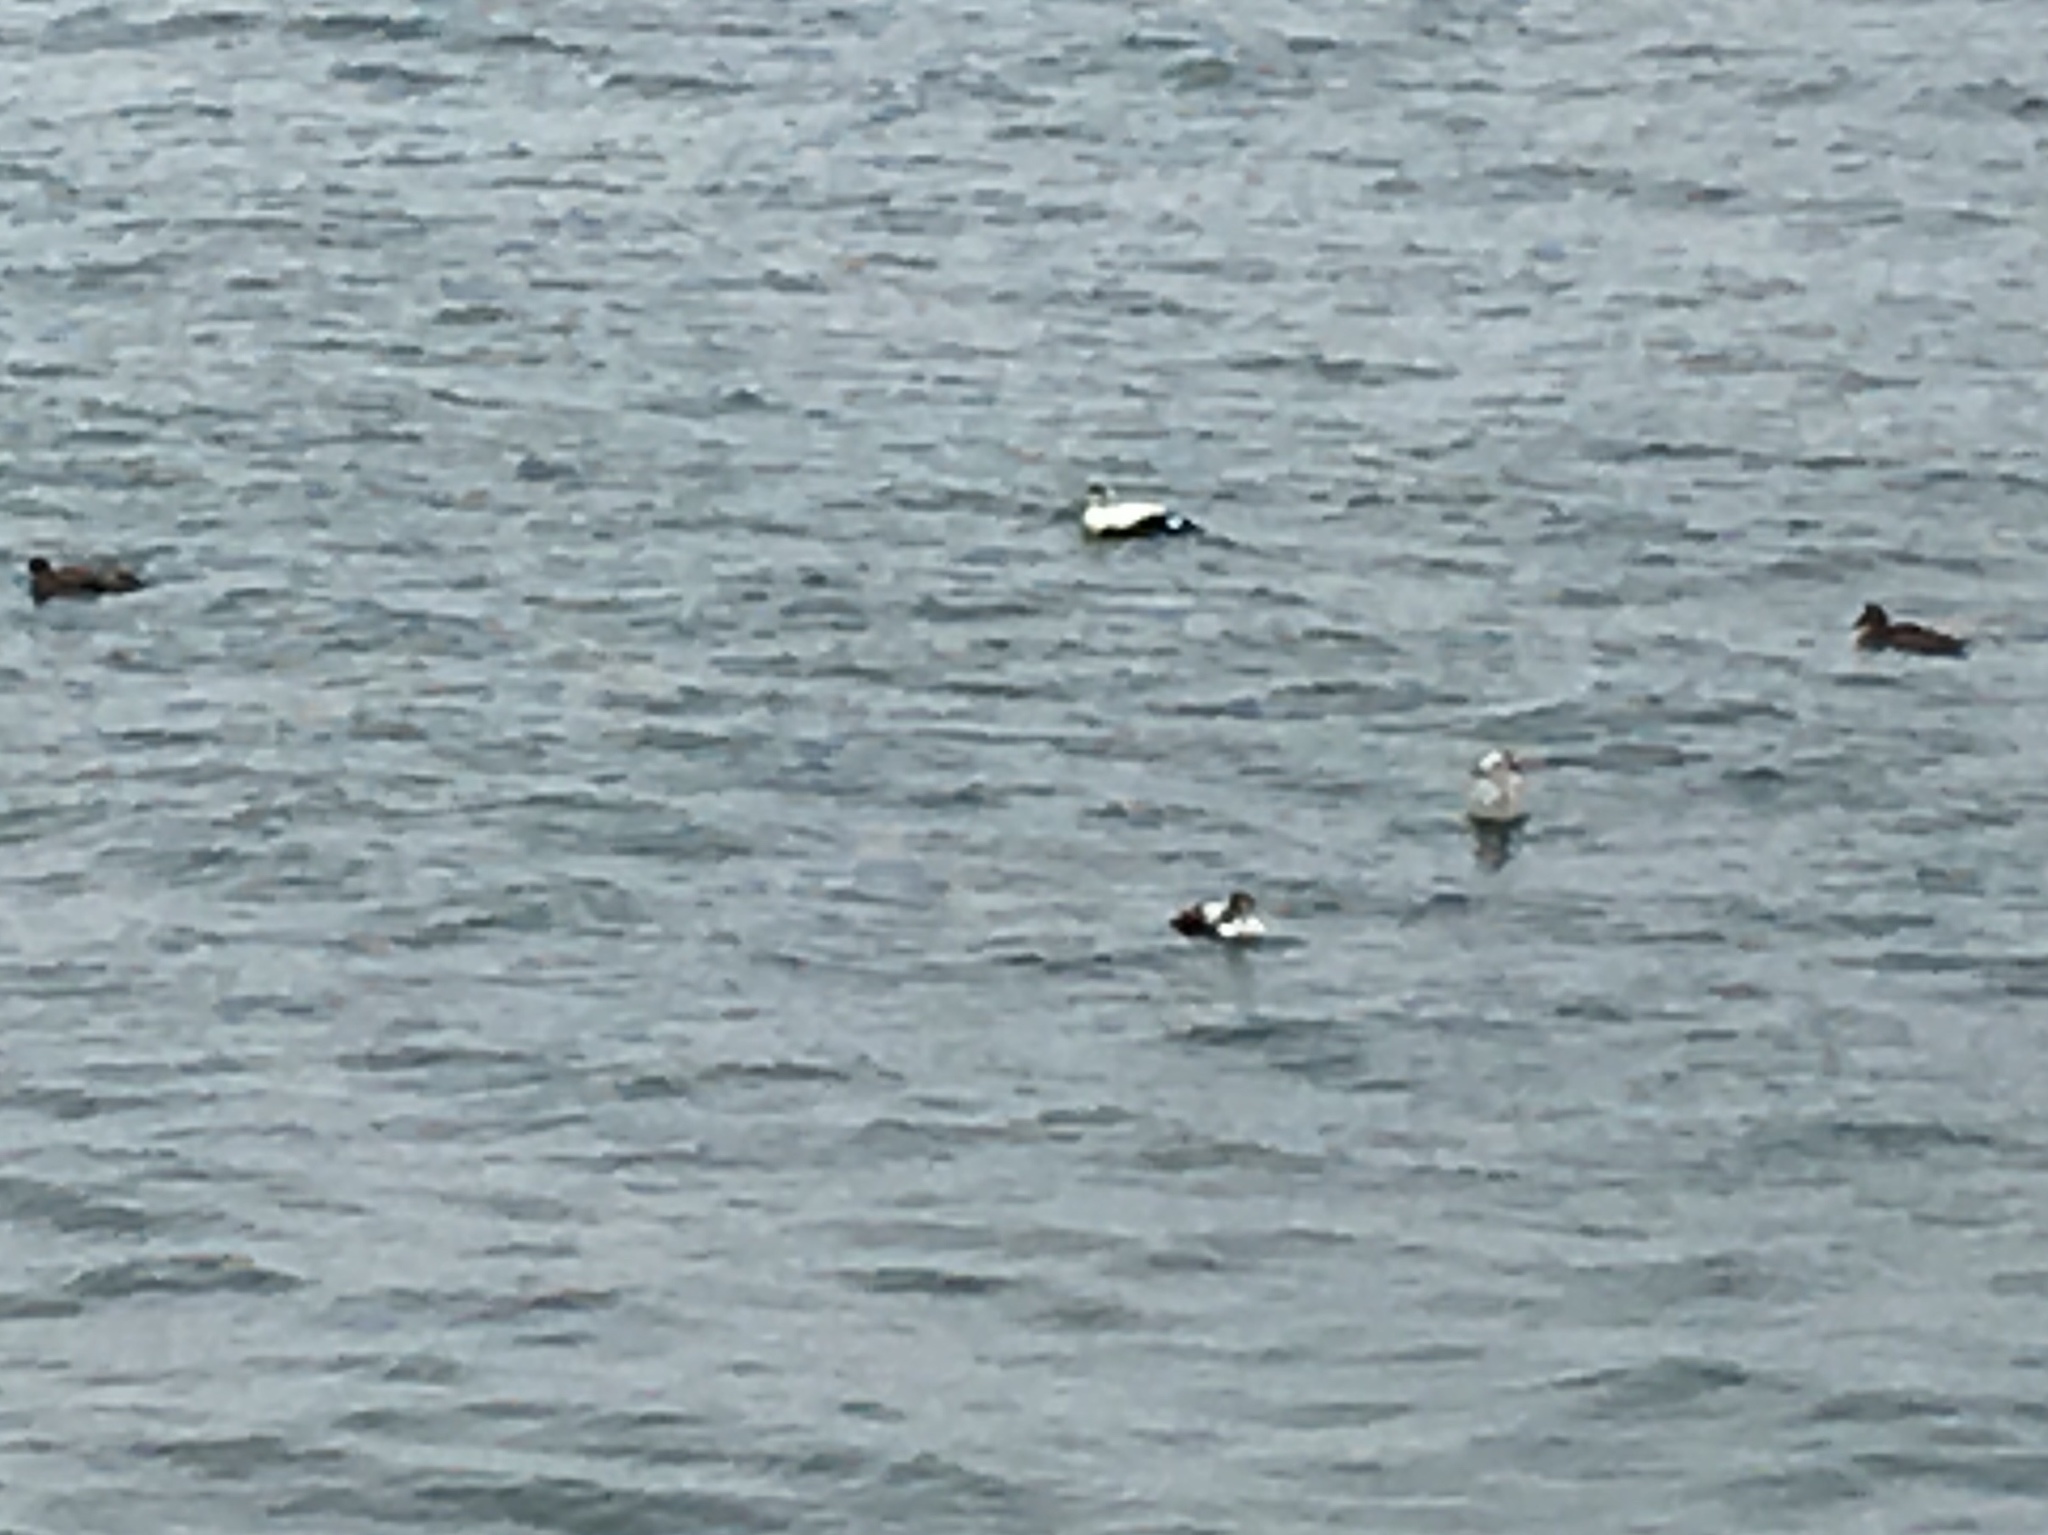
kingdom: Animalia
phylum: Chordata
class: Aves
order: Anseriformes
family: Anatidae
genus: Somateria
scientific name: Somateria mollissima
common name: Common eider
